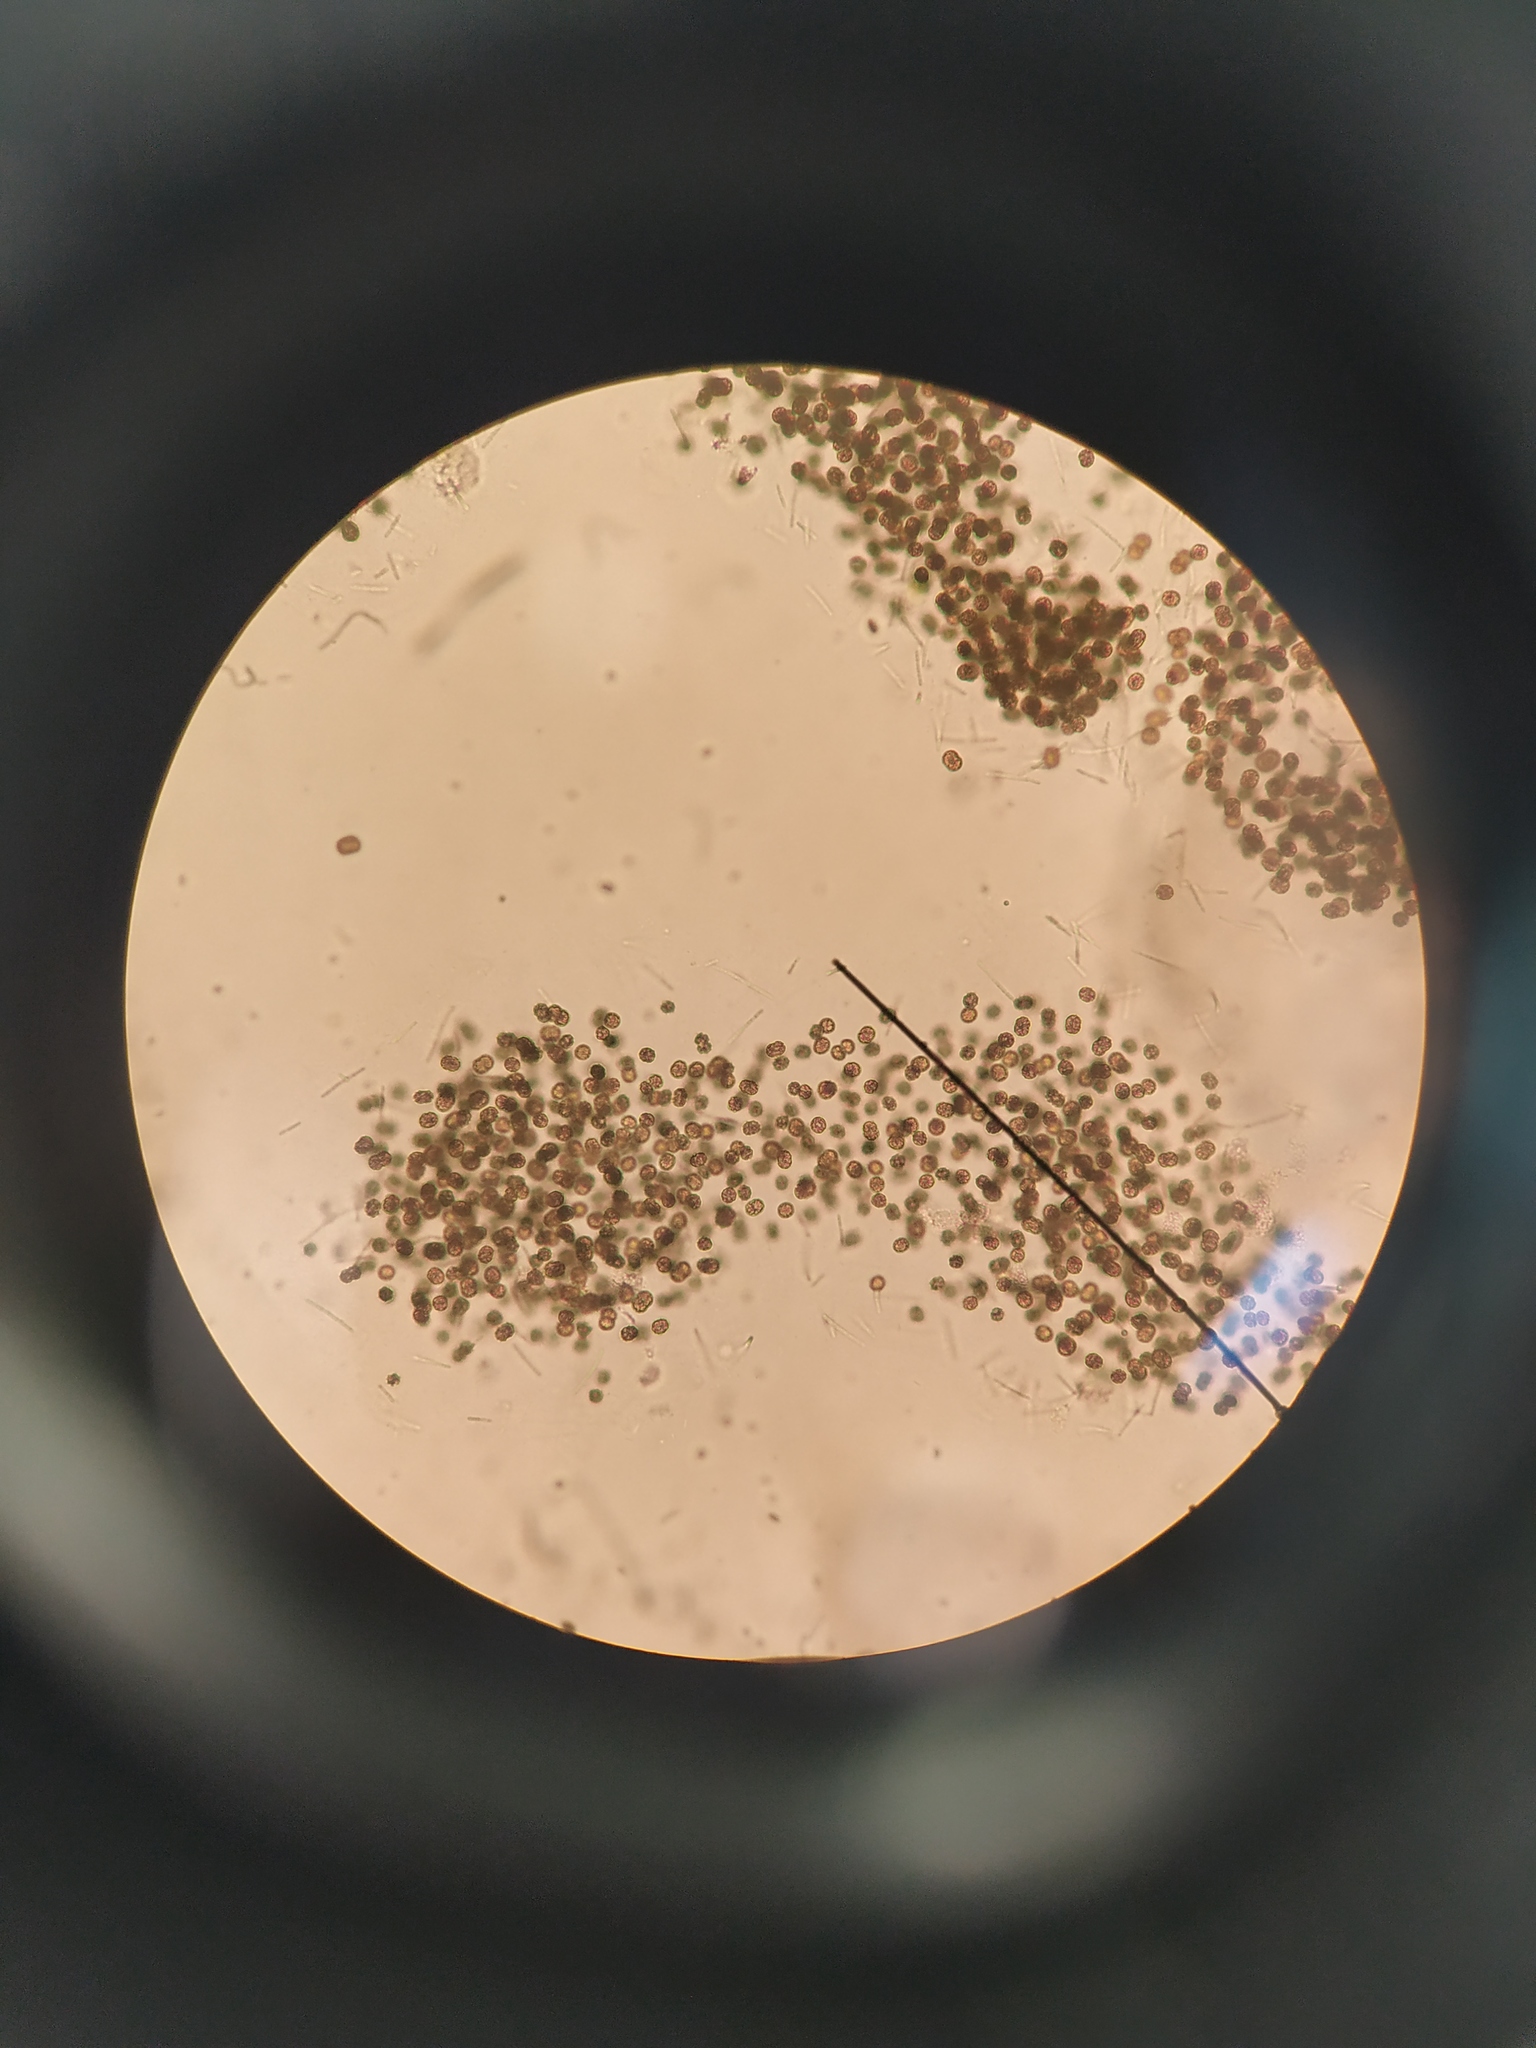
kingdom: Bacteria
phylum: Cyanobacteria
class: Cyanobacteriia
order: Cyanobacteriales
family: Microcystaceae
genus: Microcystis
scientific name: Microcystis aeruginosa
